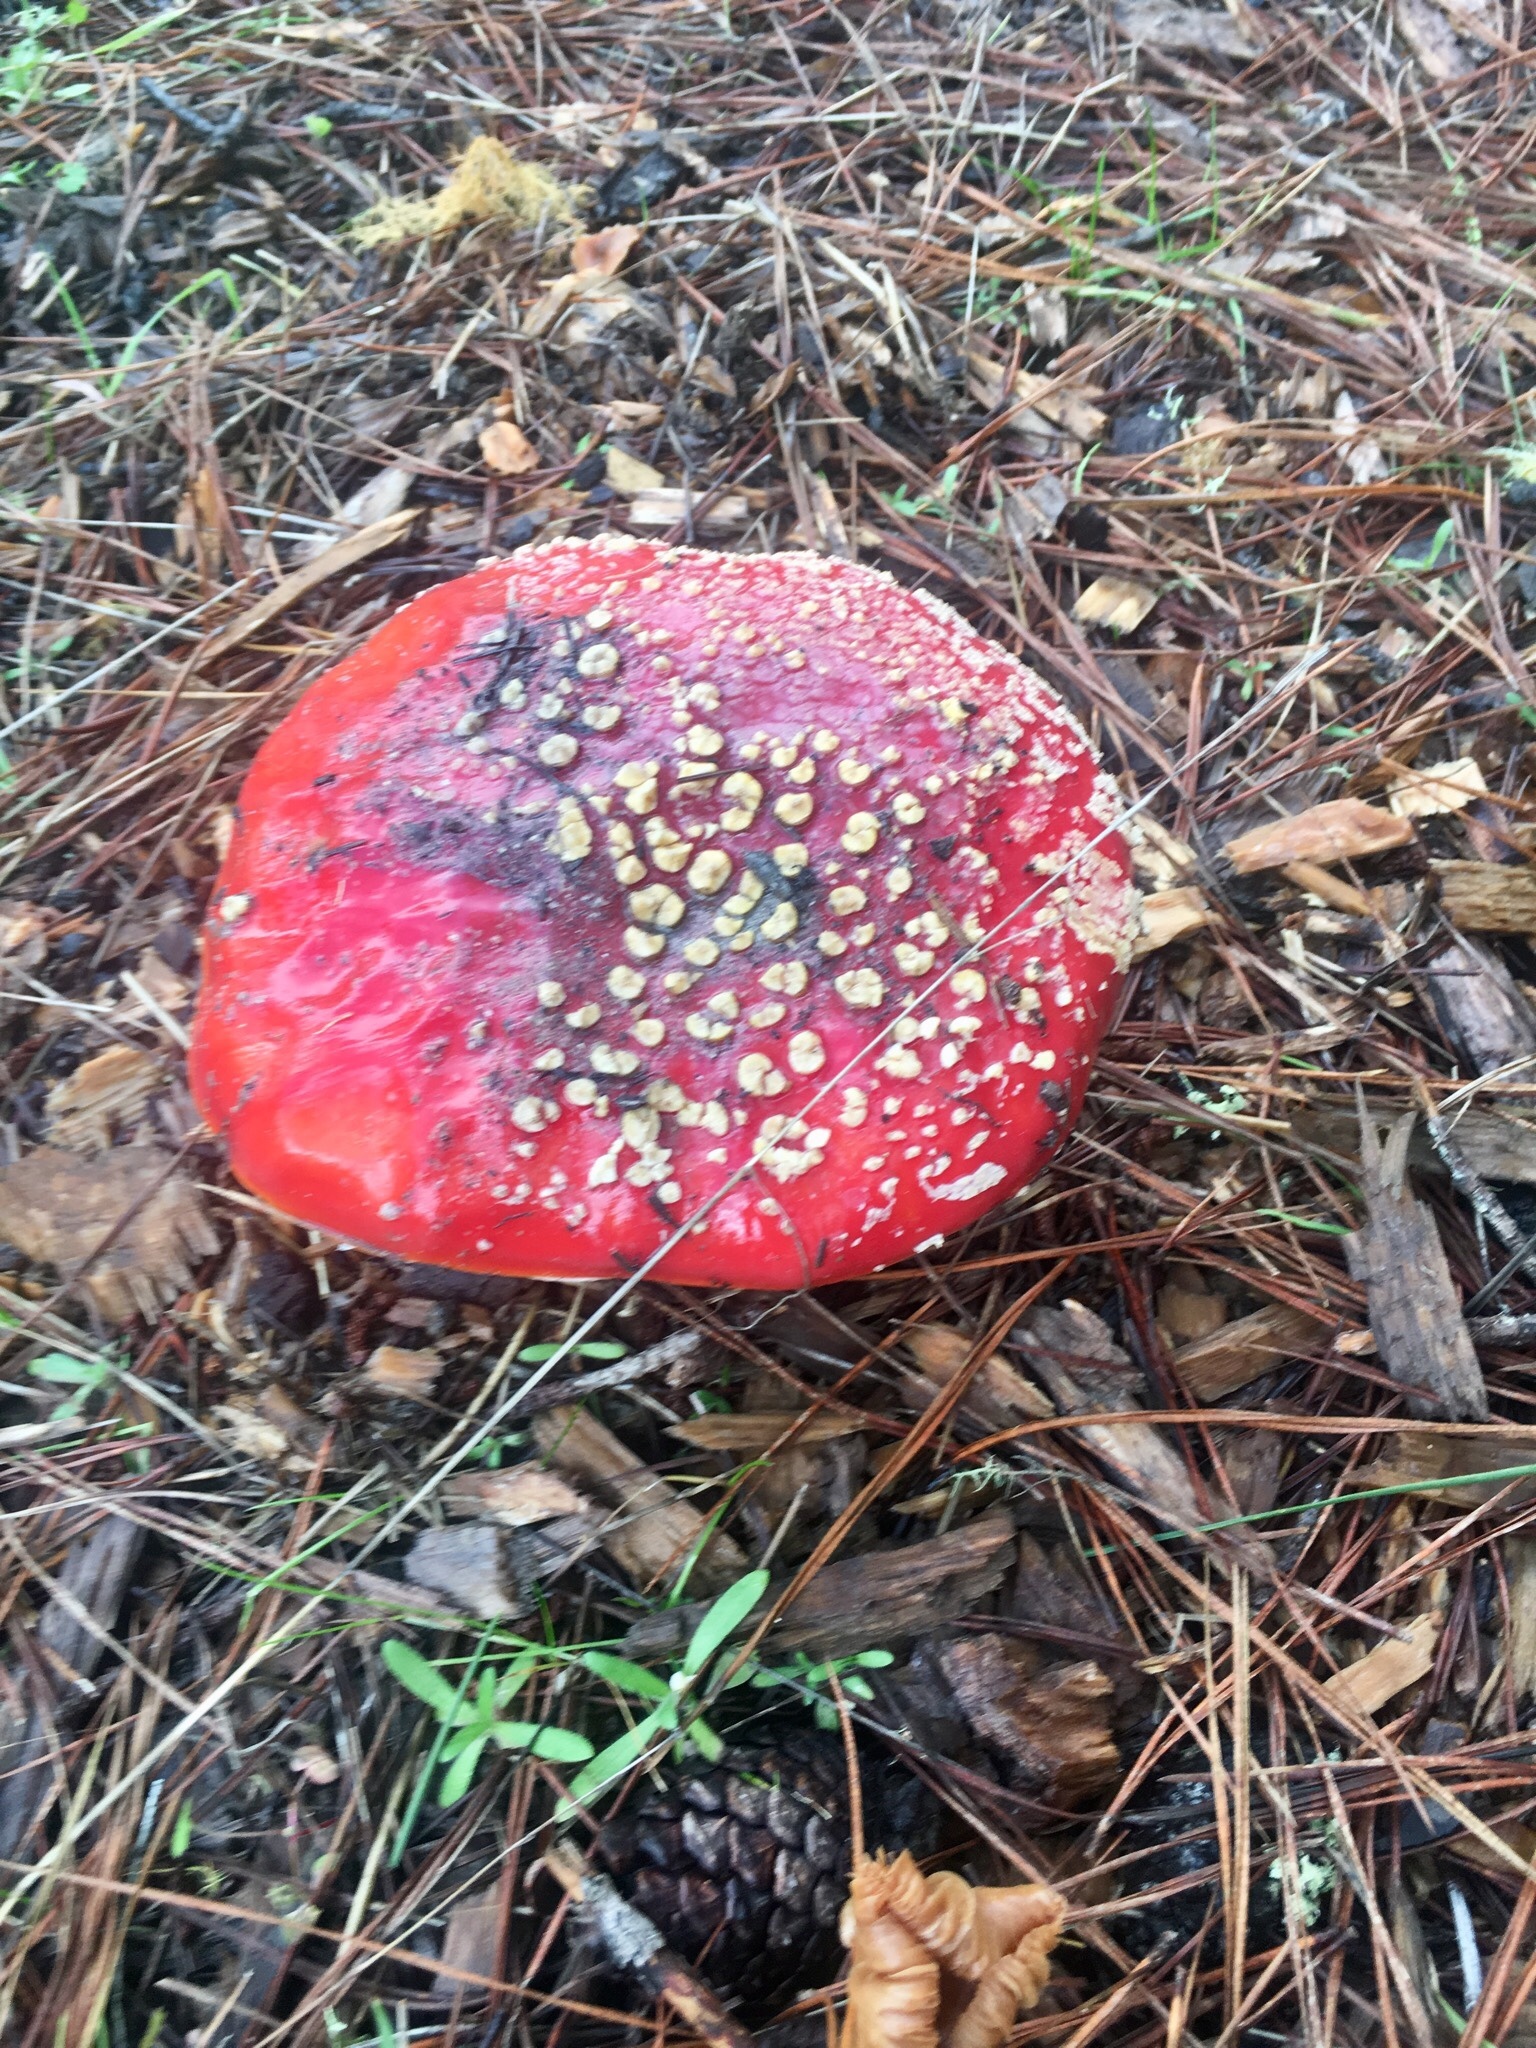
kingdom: Fungi
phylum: Basidiomycota
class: Agaricomycetes
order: Agaricales
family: Amanitaceae
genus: Amanita
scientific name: Amanita muscaria
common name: Fly agaric
